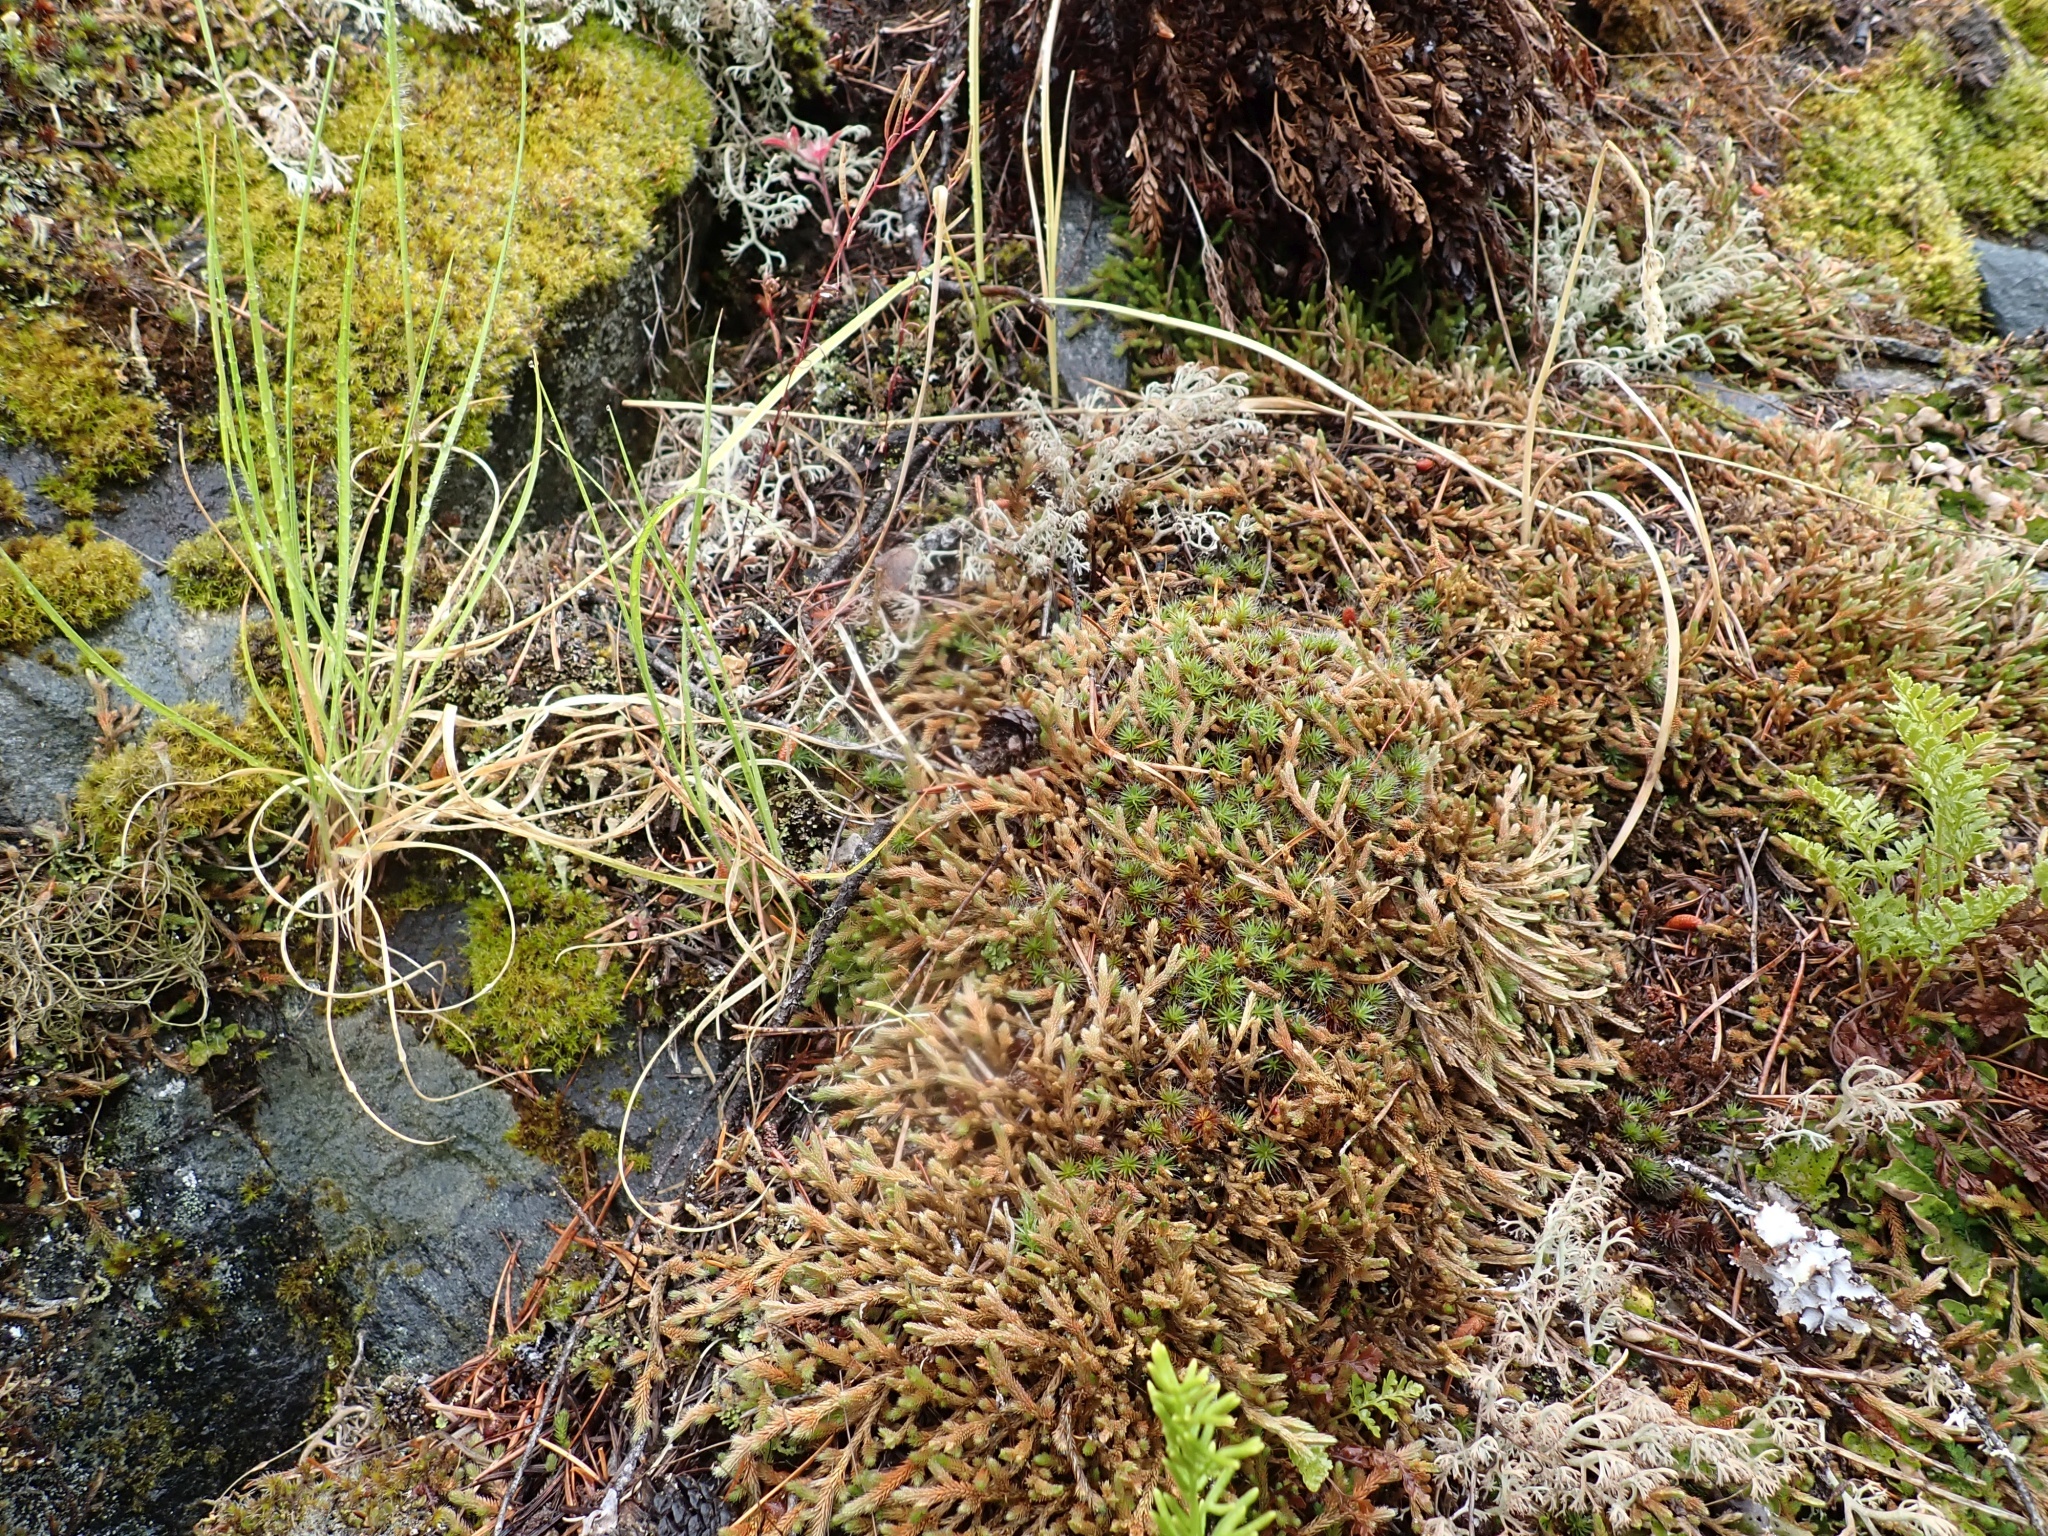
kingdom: Plantae
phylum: Bryophyta
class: Polytrichopsida
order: Polytrichales
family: Polytrichaceae
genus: Polytrichum
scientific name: Polytrichum piliferum
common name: Bristly haircap
